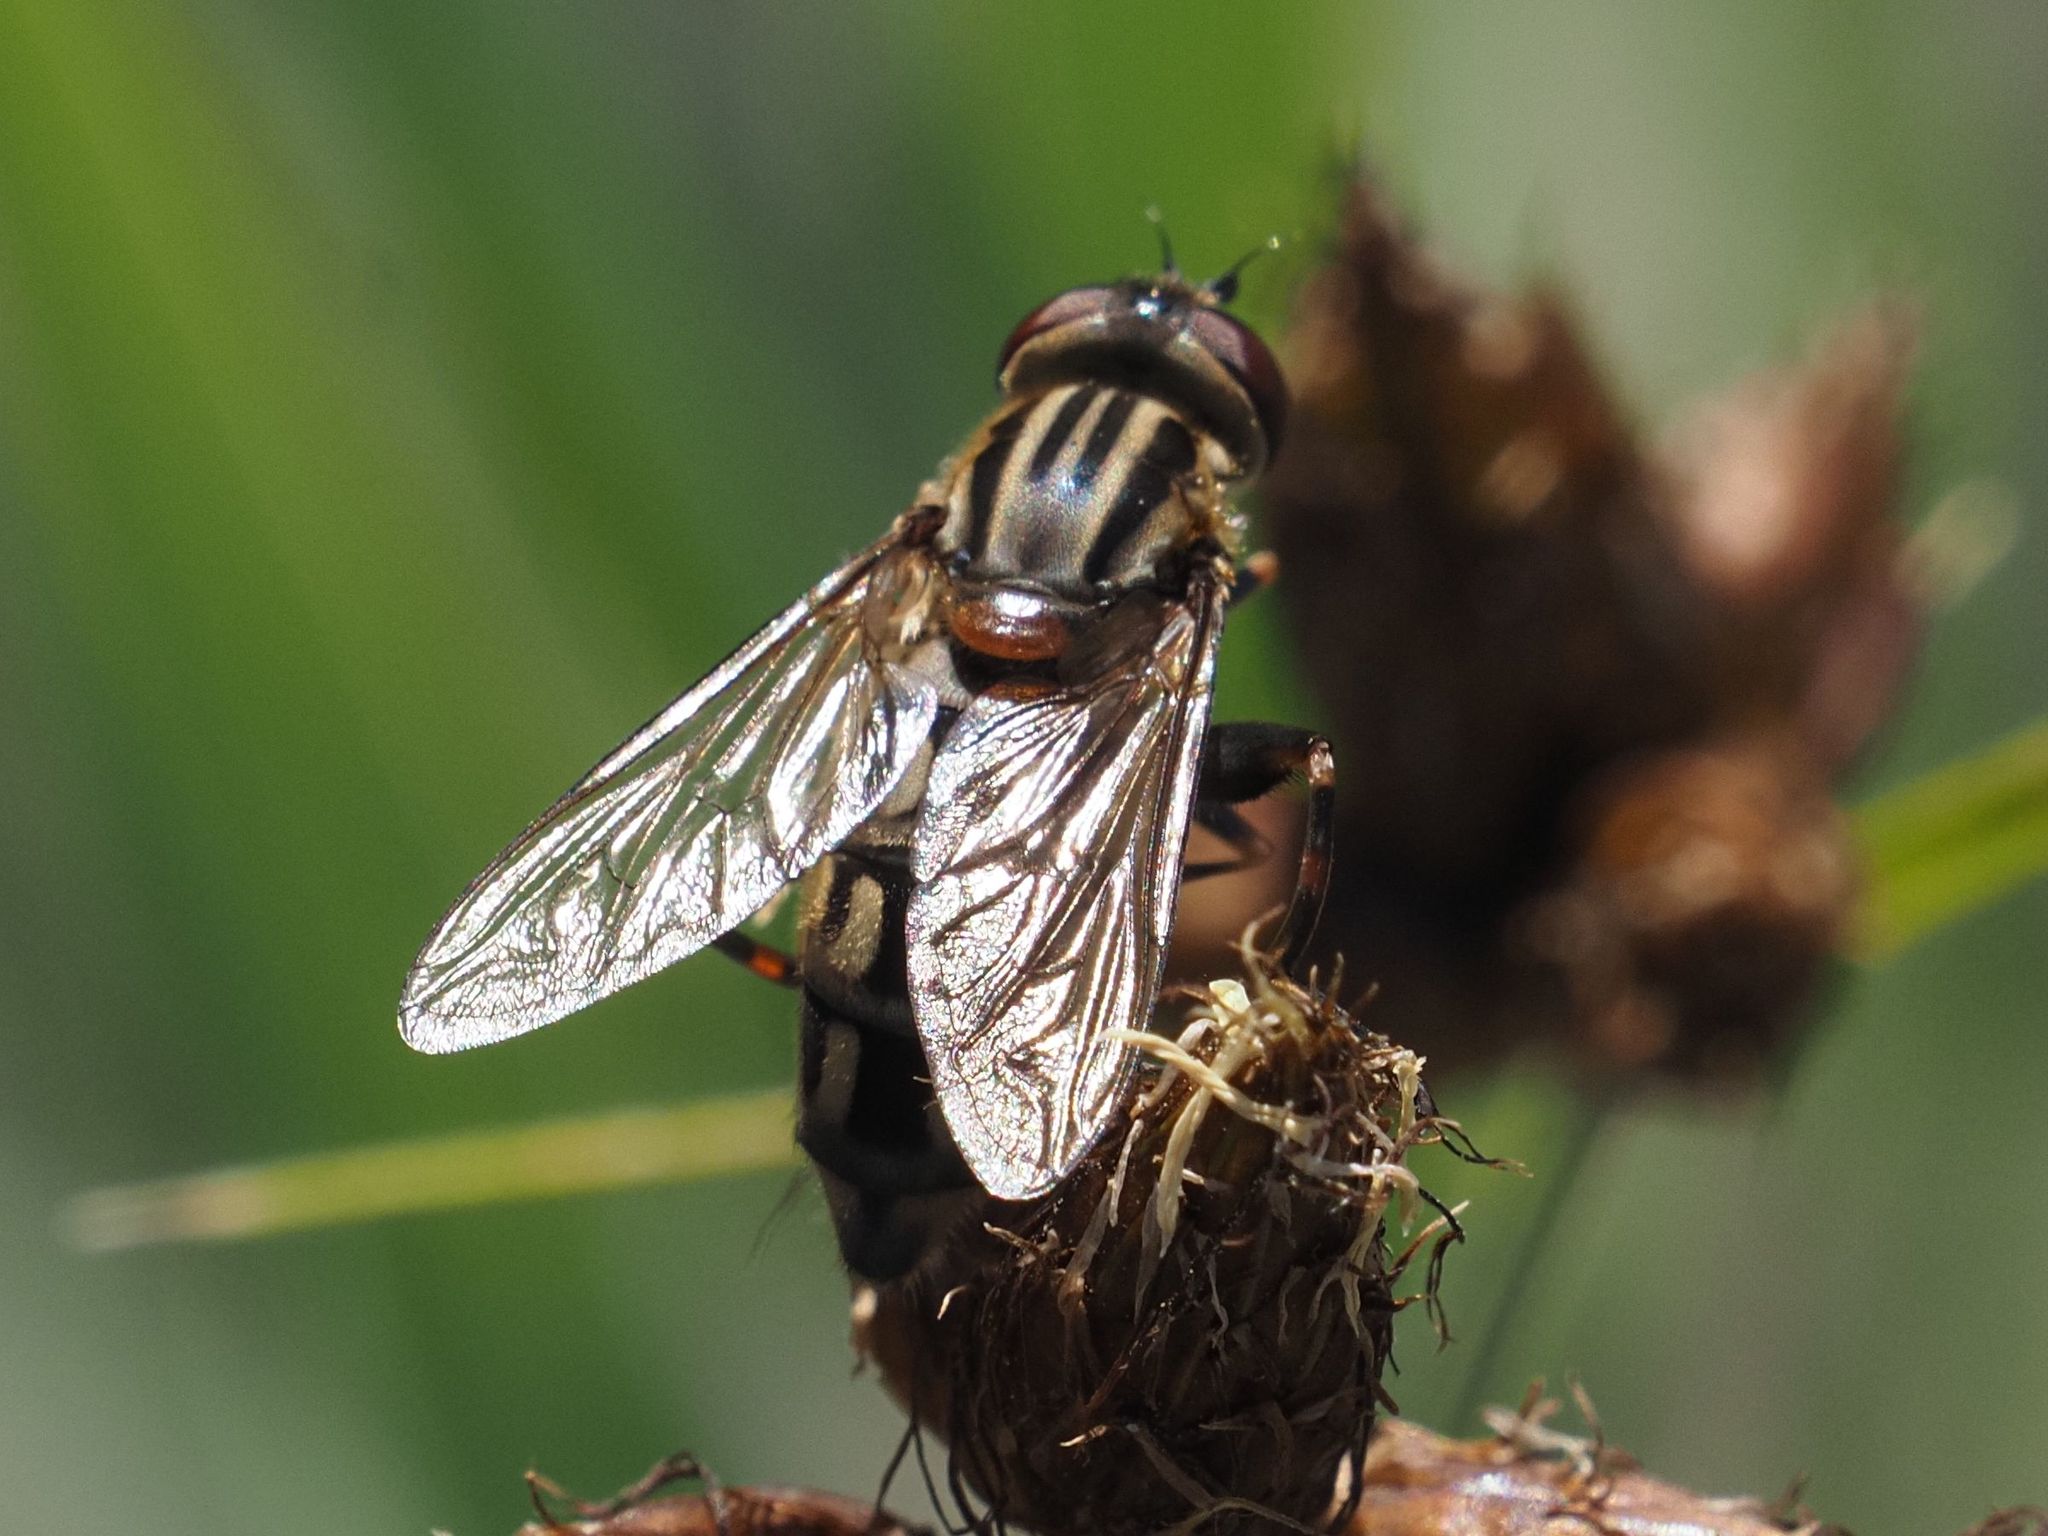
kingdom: Animalia
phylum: Arthropoda
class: Insecta
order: Diptera
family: Syrphidae
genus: Lejops
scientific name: Lejops vittatus
